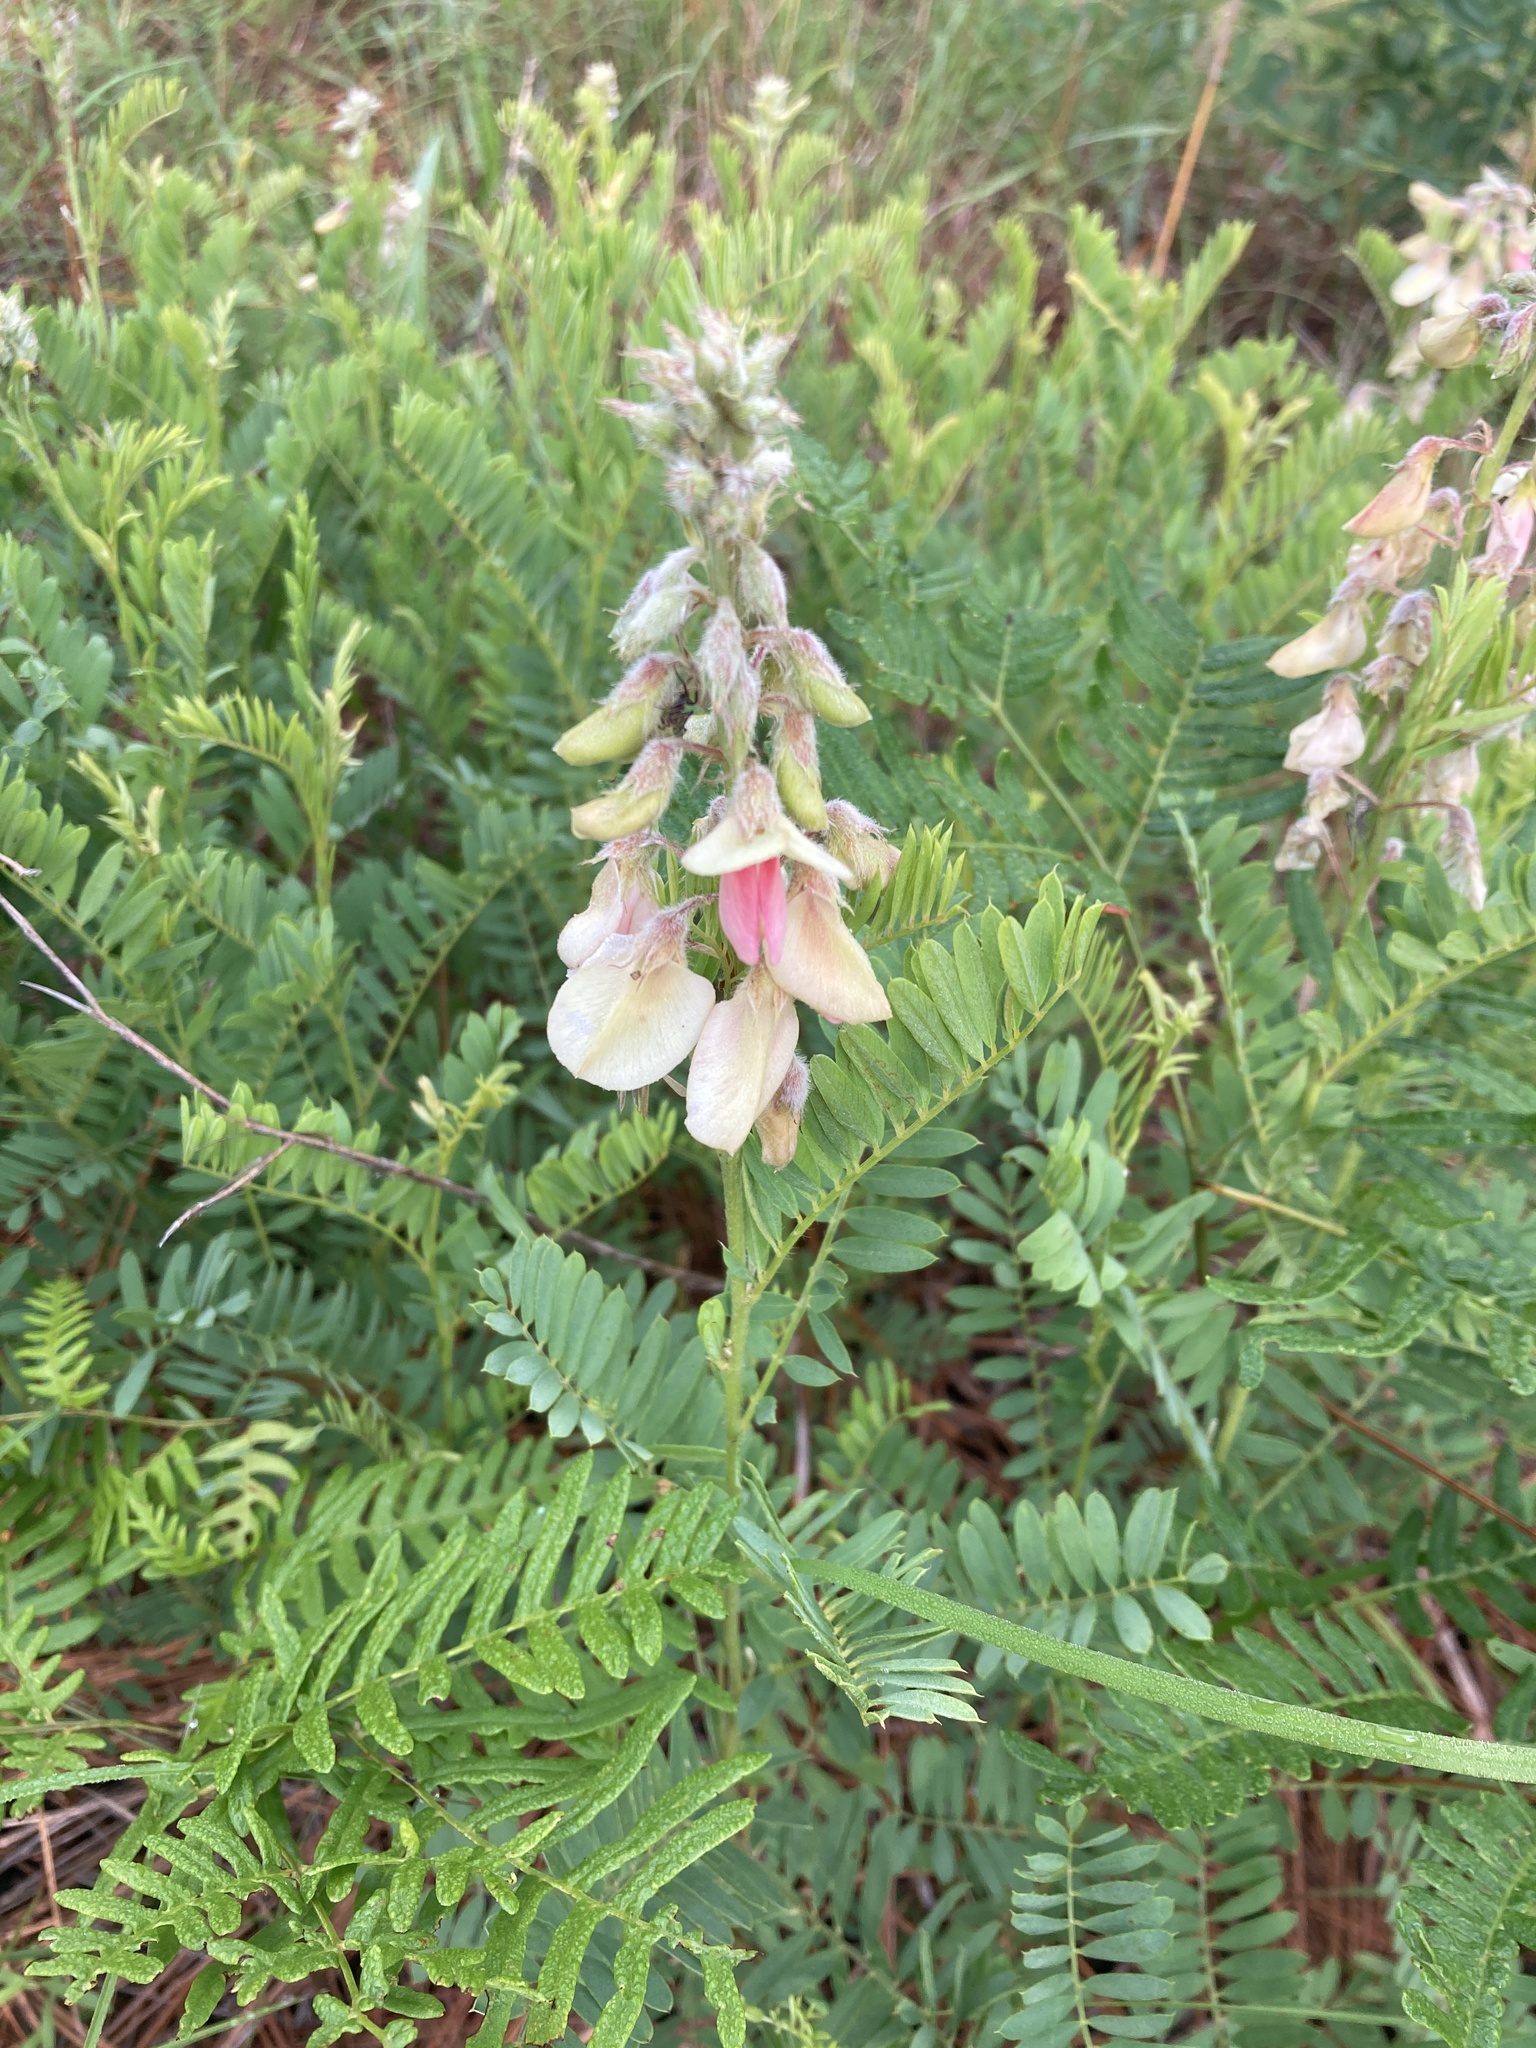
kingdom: Plantae
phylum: Tracheophyta
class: Magnoliopsida
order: Fabales
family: Fabaceae
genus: Tephrosia
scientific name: Tephrosia virginiana
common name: Rabbit-pea
